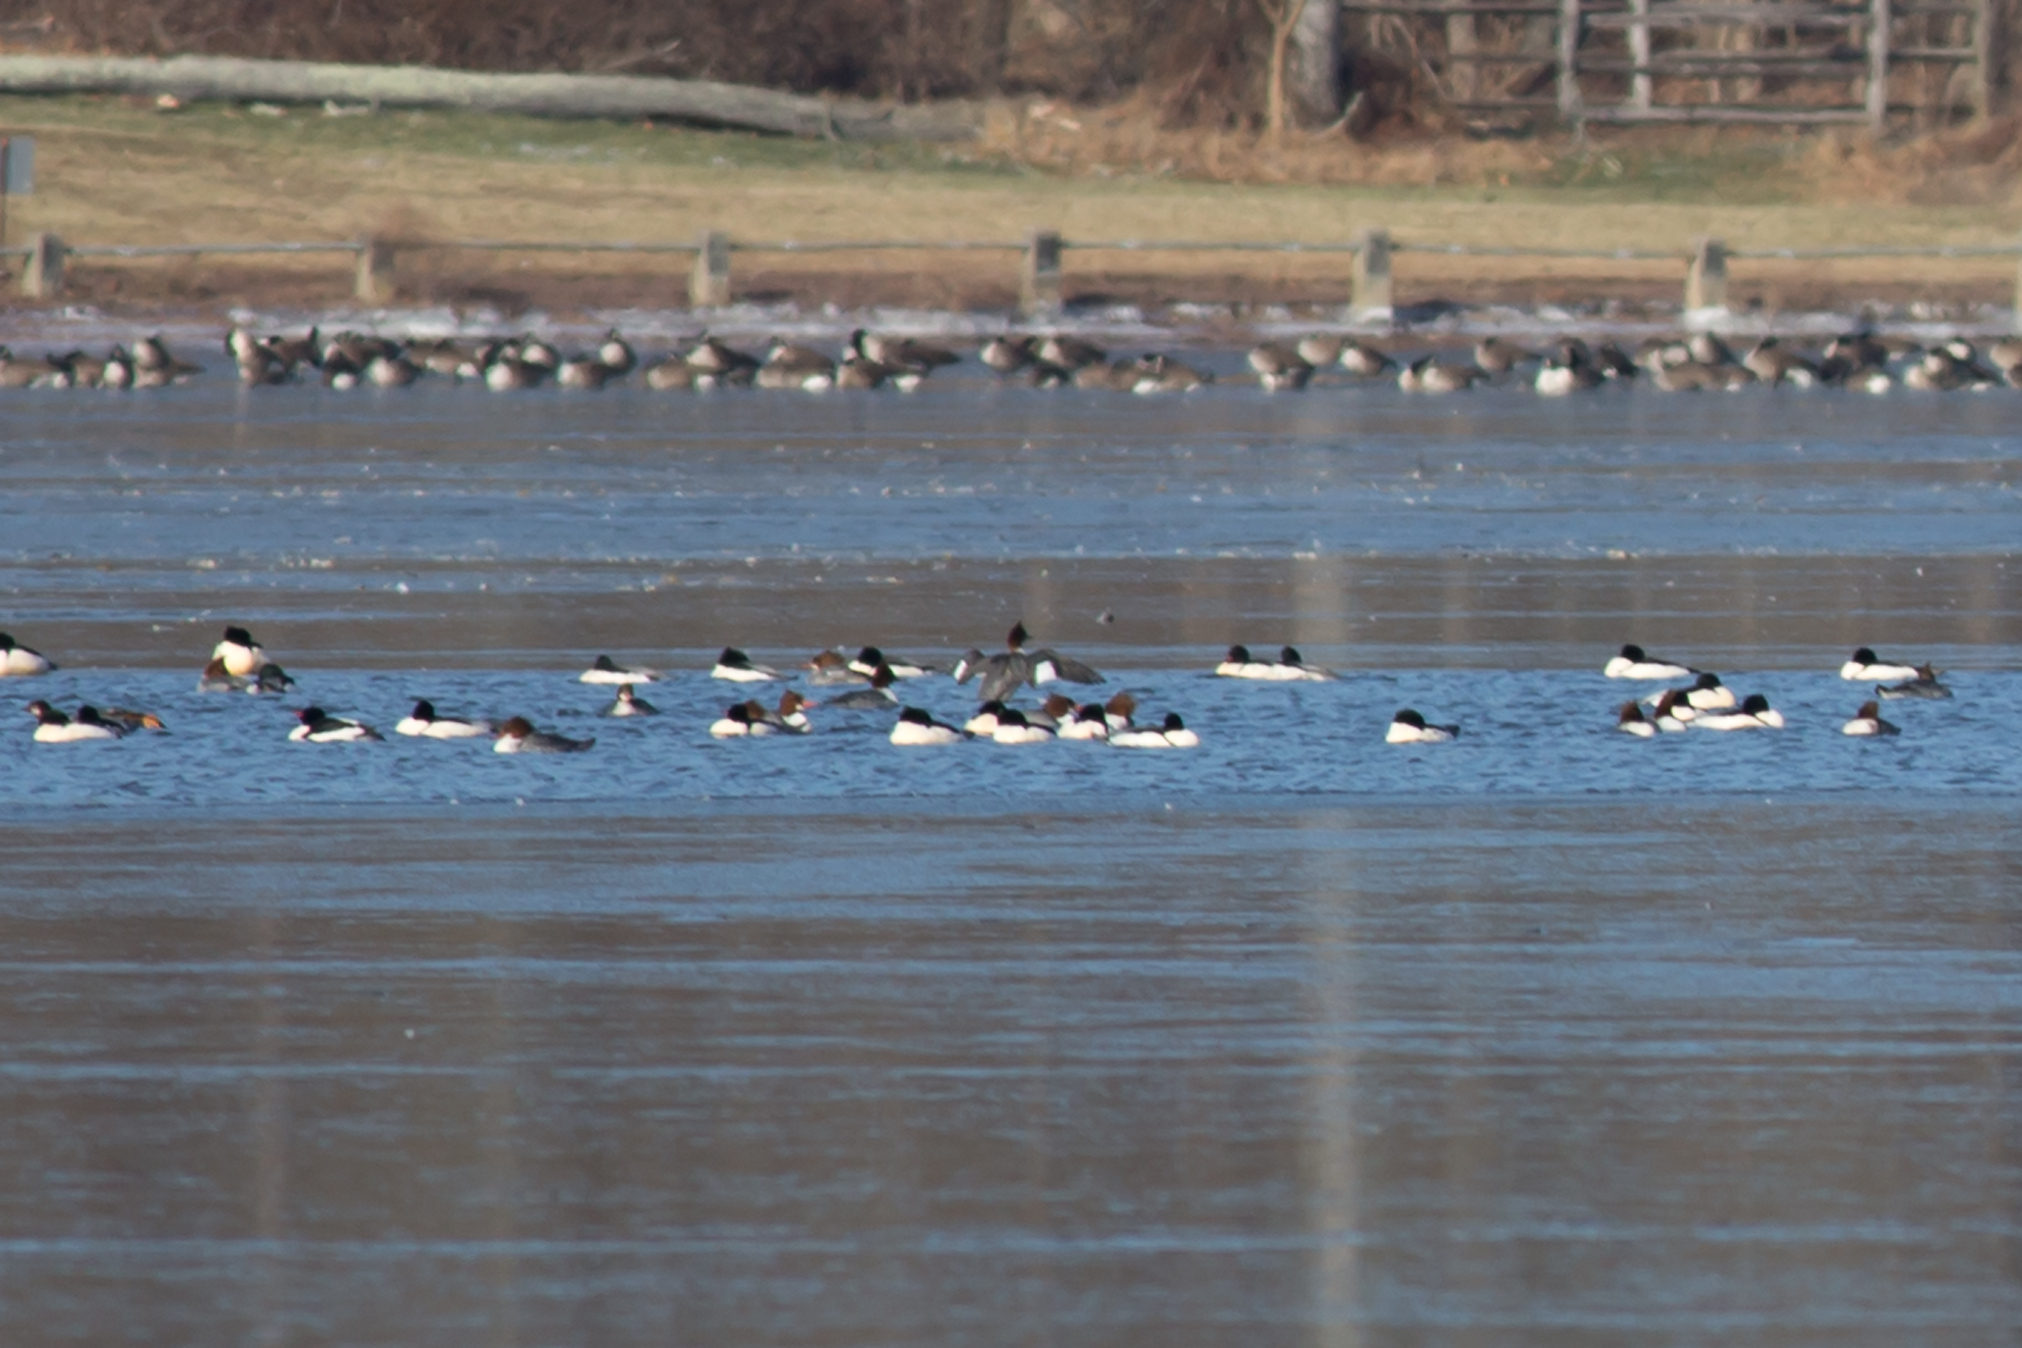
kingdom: Animalia
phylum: Chordata
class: Aves
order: Anseriformes
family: Anatidae
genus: Mergus
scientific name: Mergus merganser
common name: Common merganser
